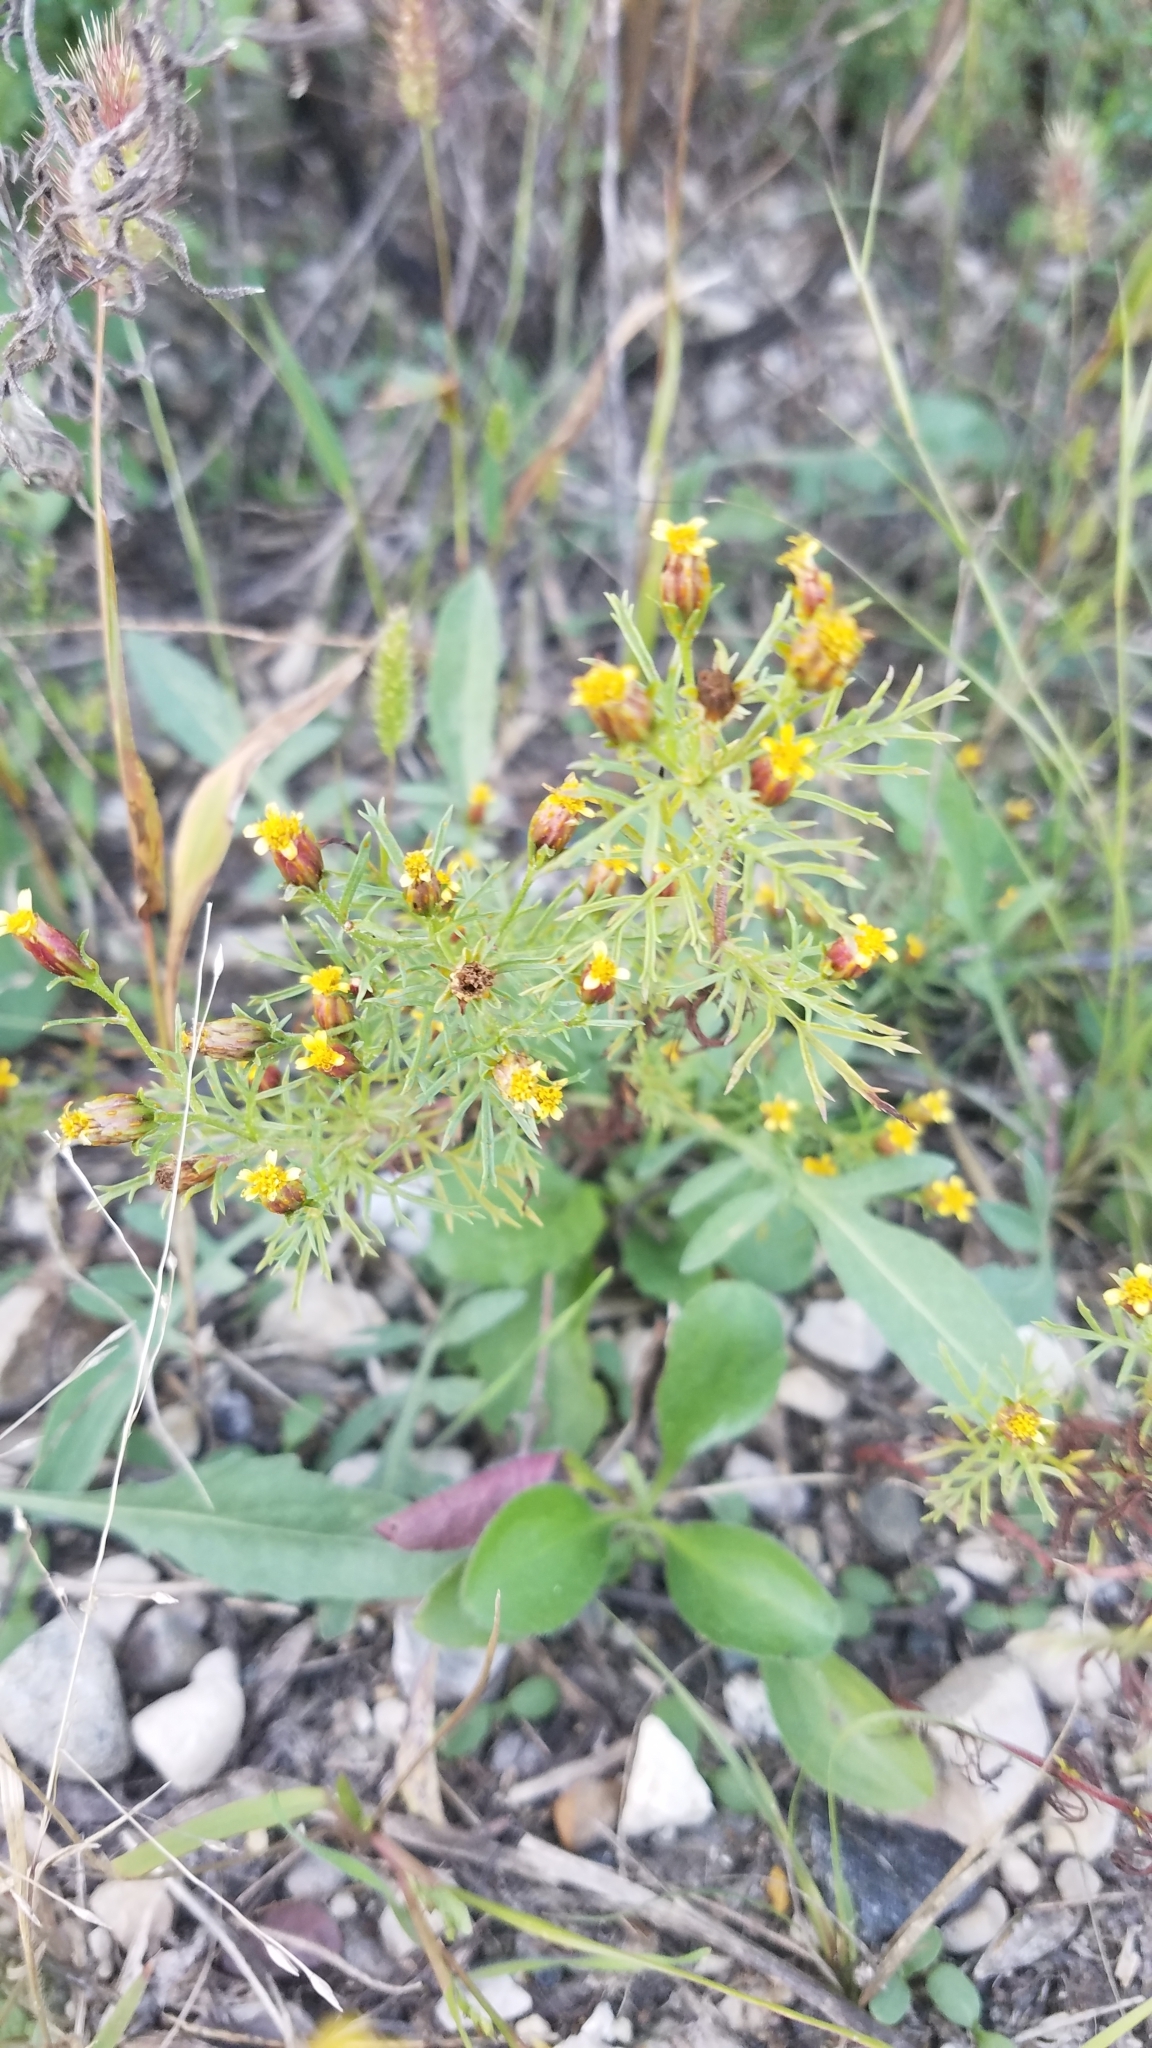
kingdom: Plantae
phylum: Tracheophyta
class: Magnoliopsida
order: Asterales
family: Asteraceae
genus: Dyssodia
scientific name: Dyssodia papposa
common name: Dogweed
